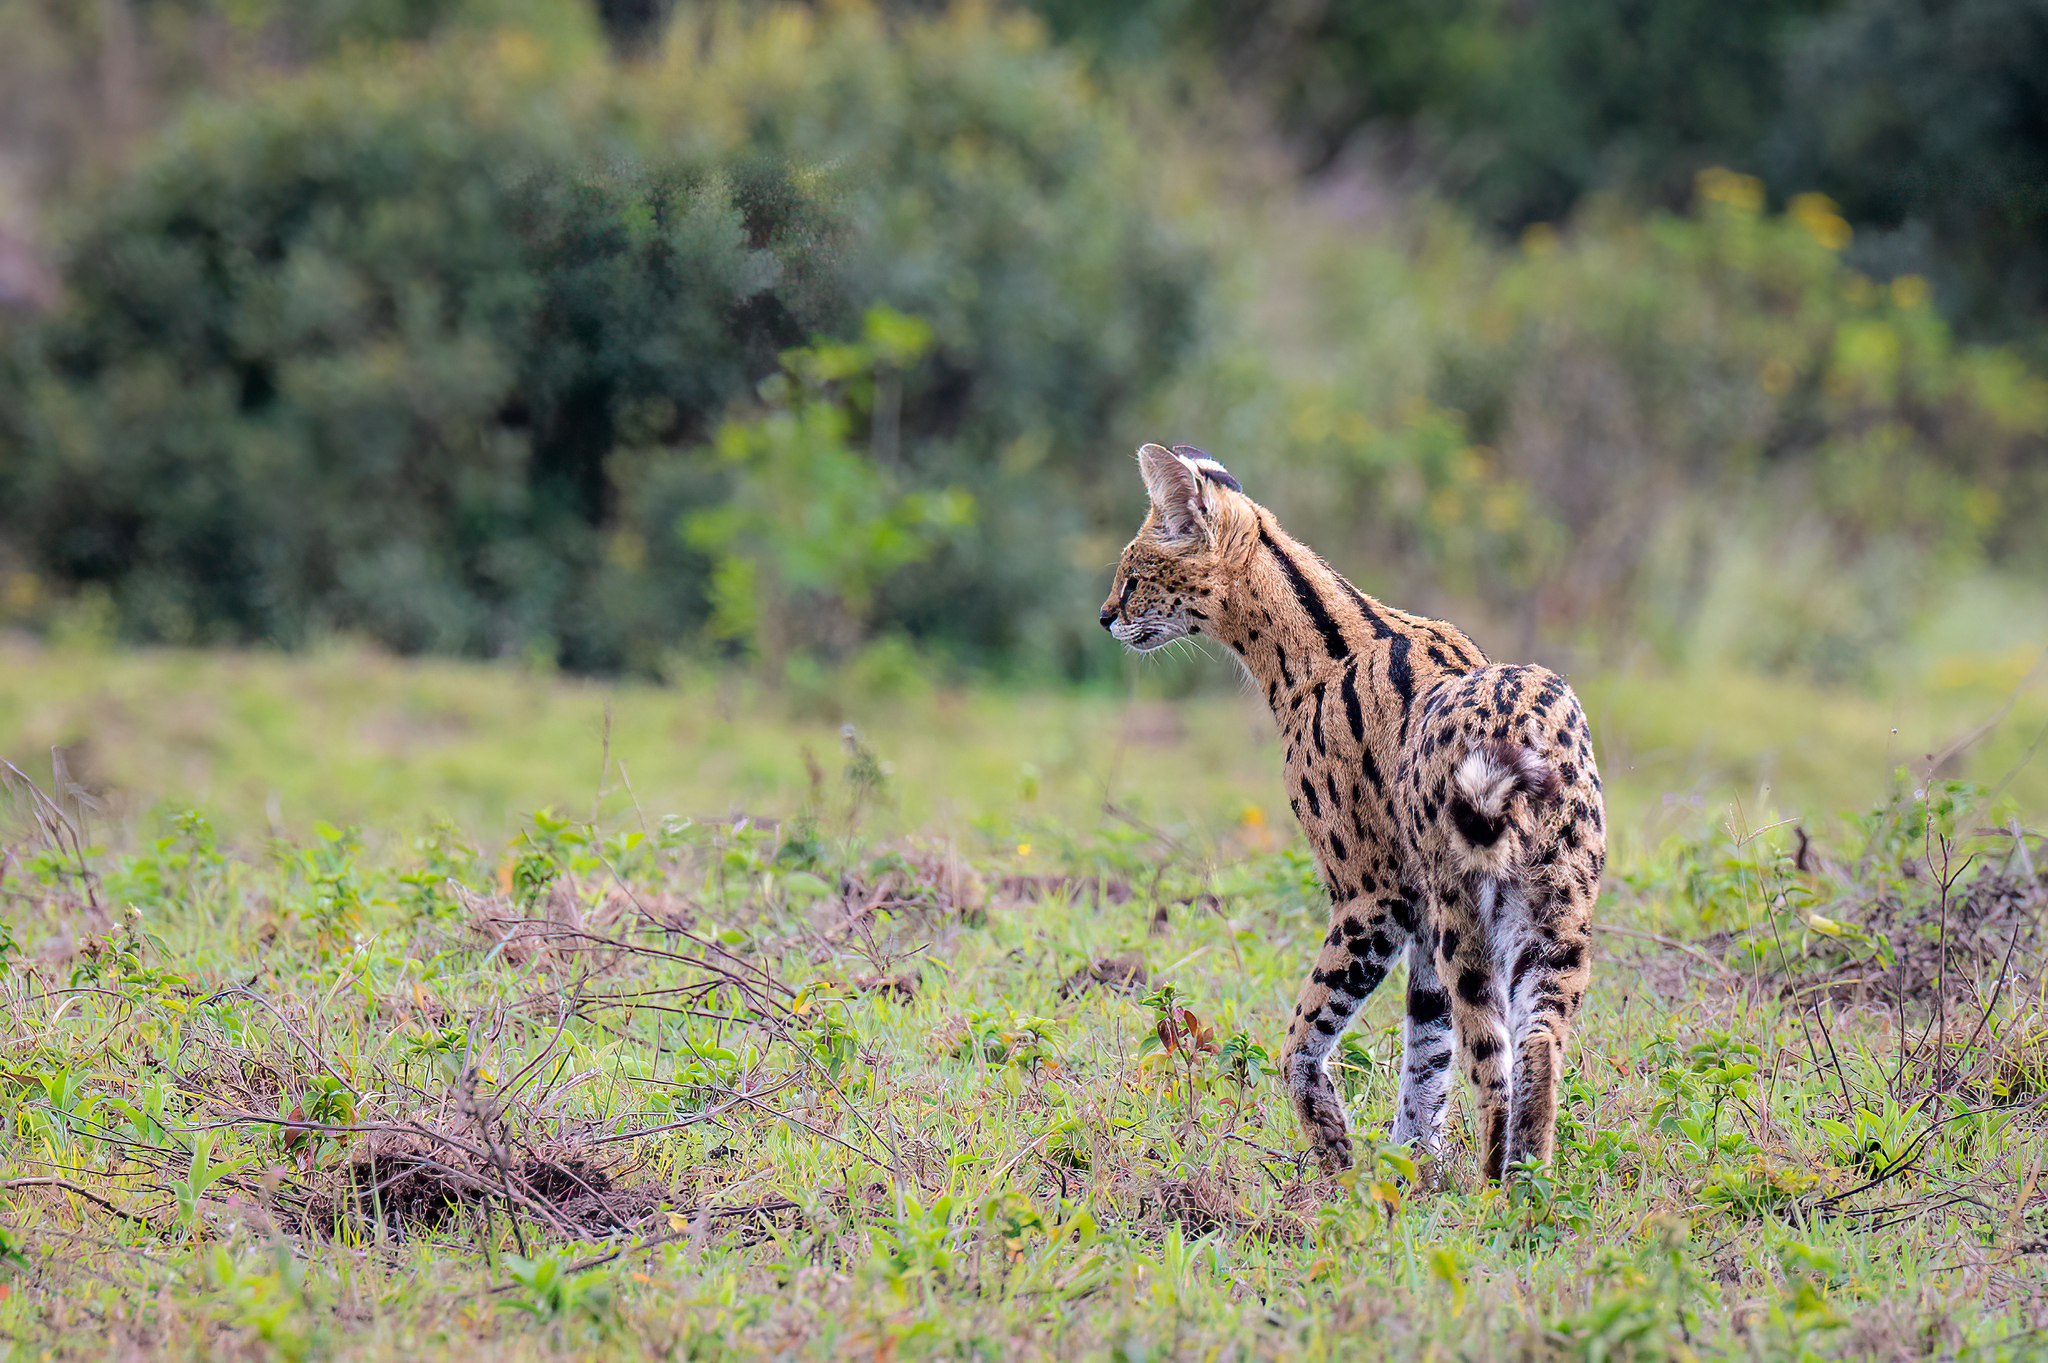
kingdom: Animalia
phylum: Chordata
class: Mammalia
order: Carnivora
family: Felidae
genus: Leptailurus
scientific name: Leptailurus serval
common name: Serval
